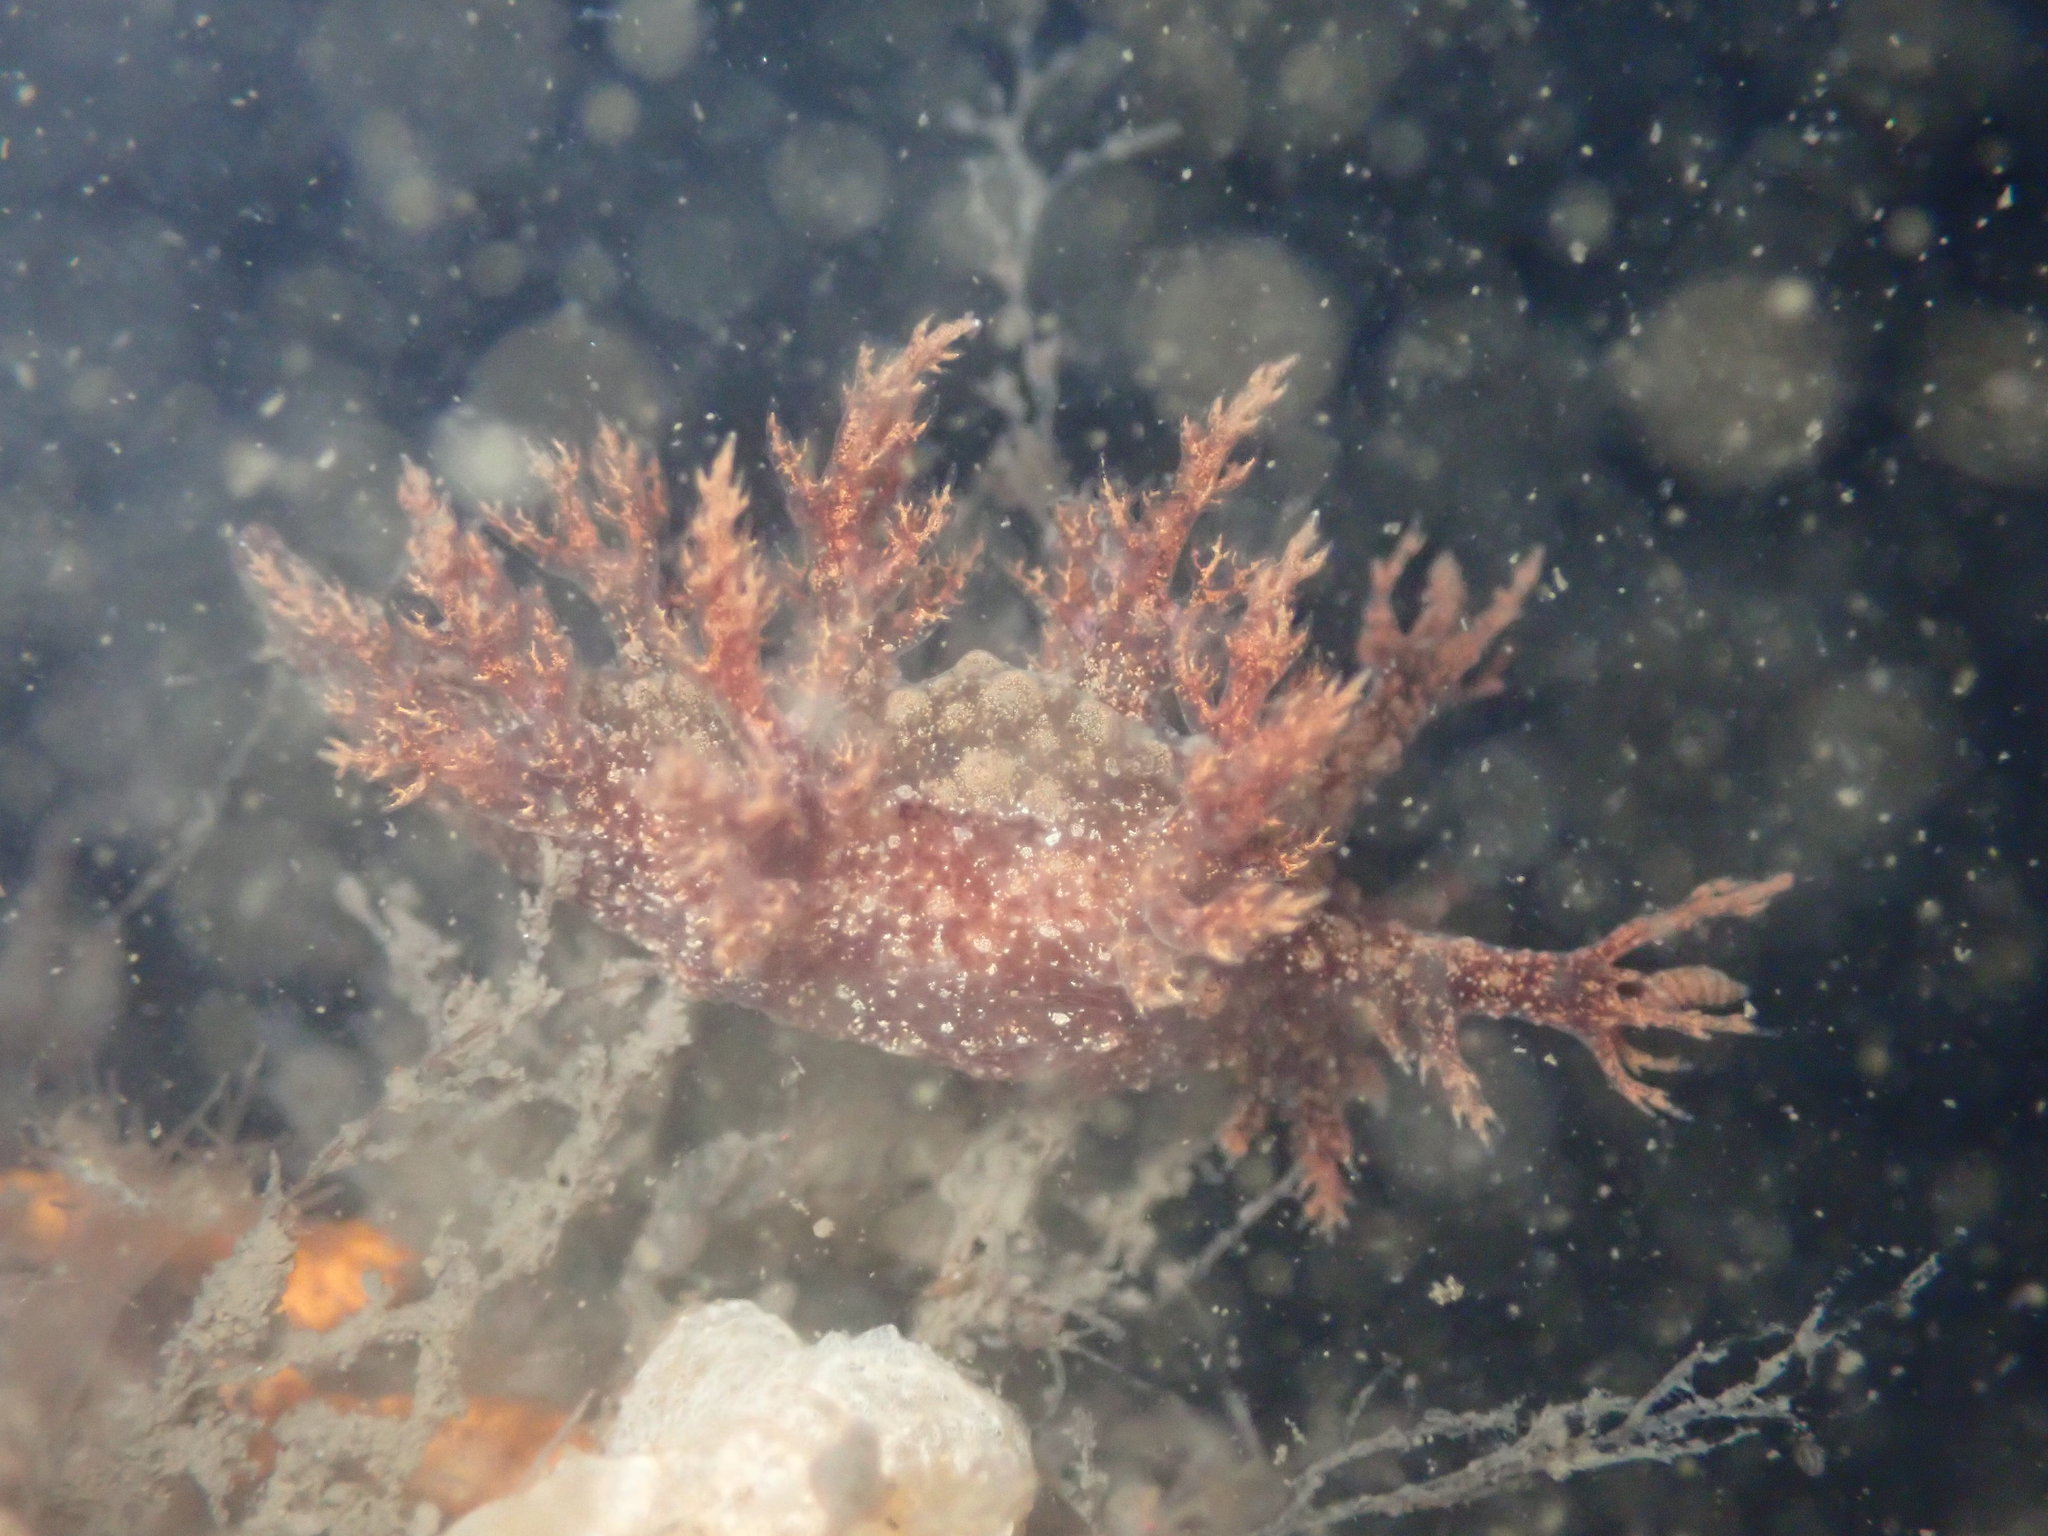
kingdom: Animalia
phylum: Mollusca
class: Gastropoda
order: Nudibranchia
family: Dendronotidae
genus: Dendronotus
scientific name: Dendronotus venustus
